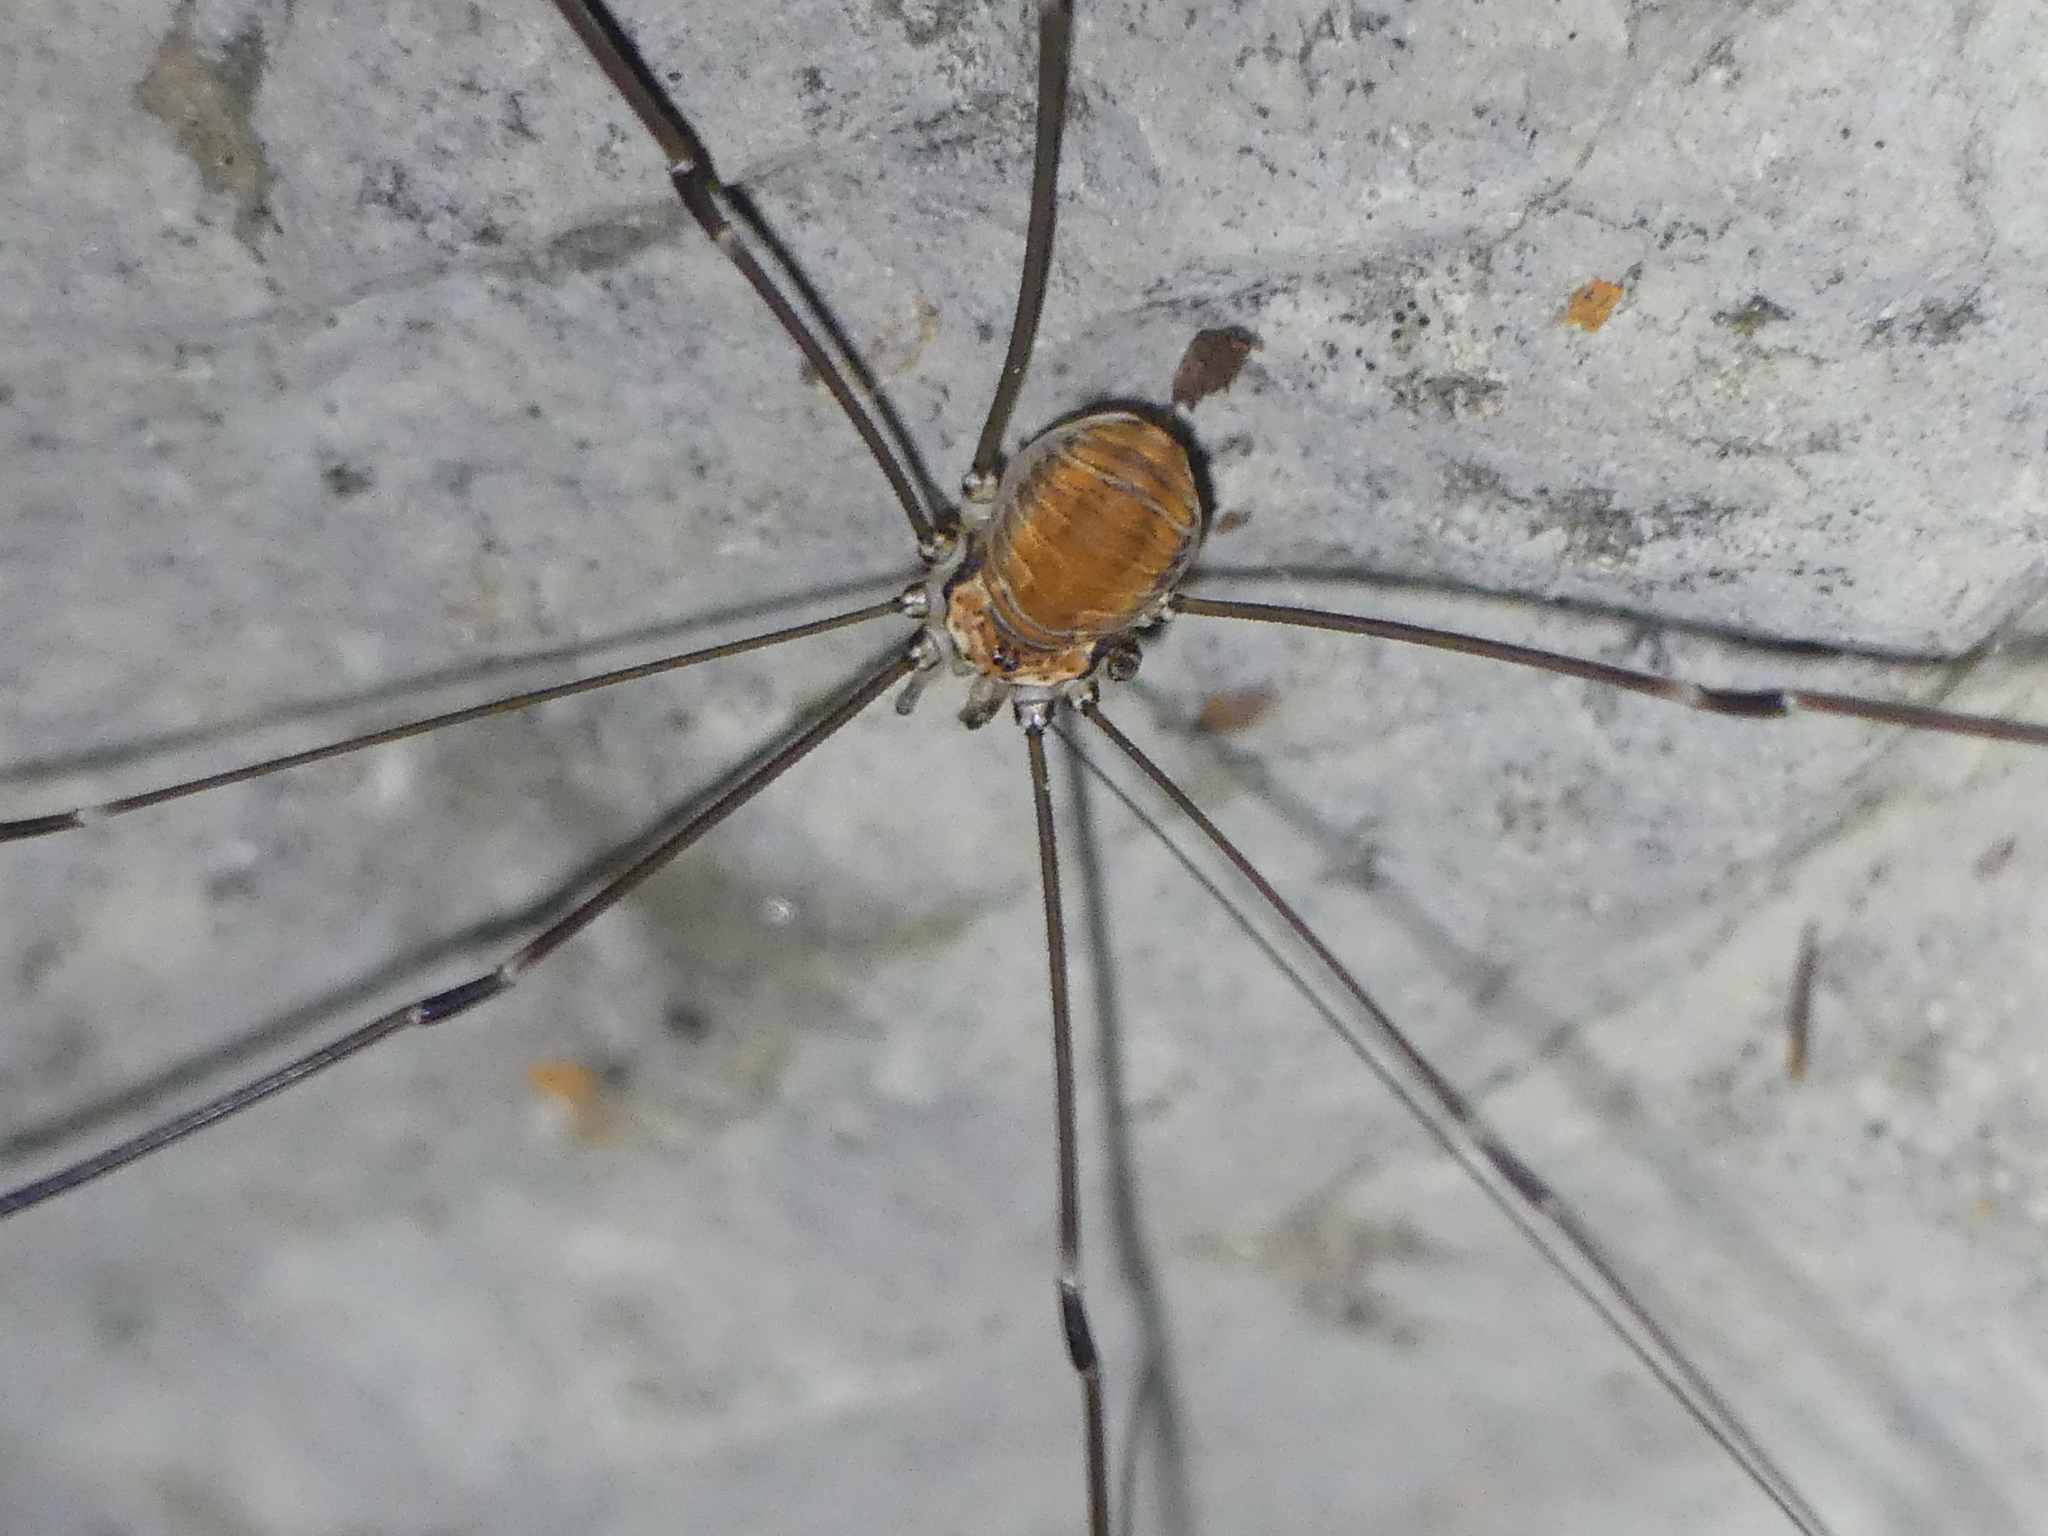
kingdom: Animalia
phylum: Arthropoda
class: Arachnida
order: Opiliones
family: Sclerosomatidae
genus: Leiobunum
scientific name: Leiobunum limbatum
